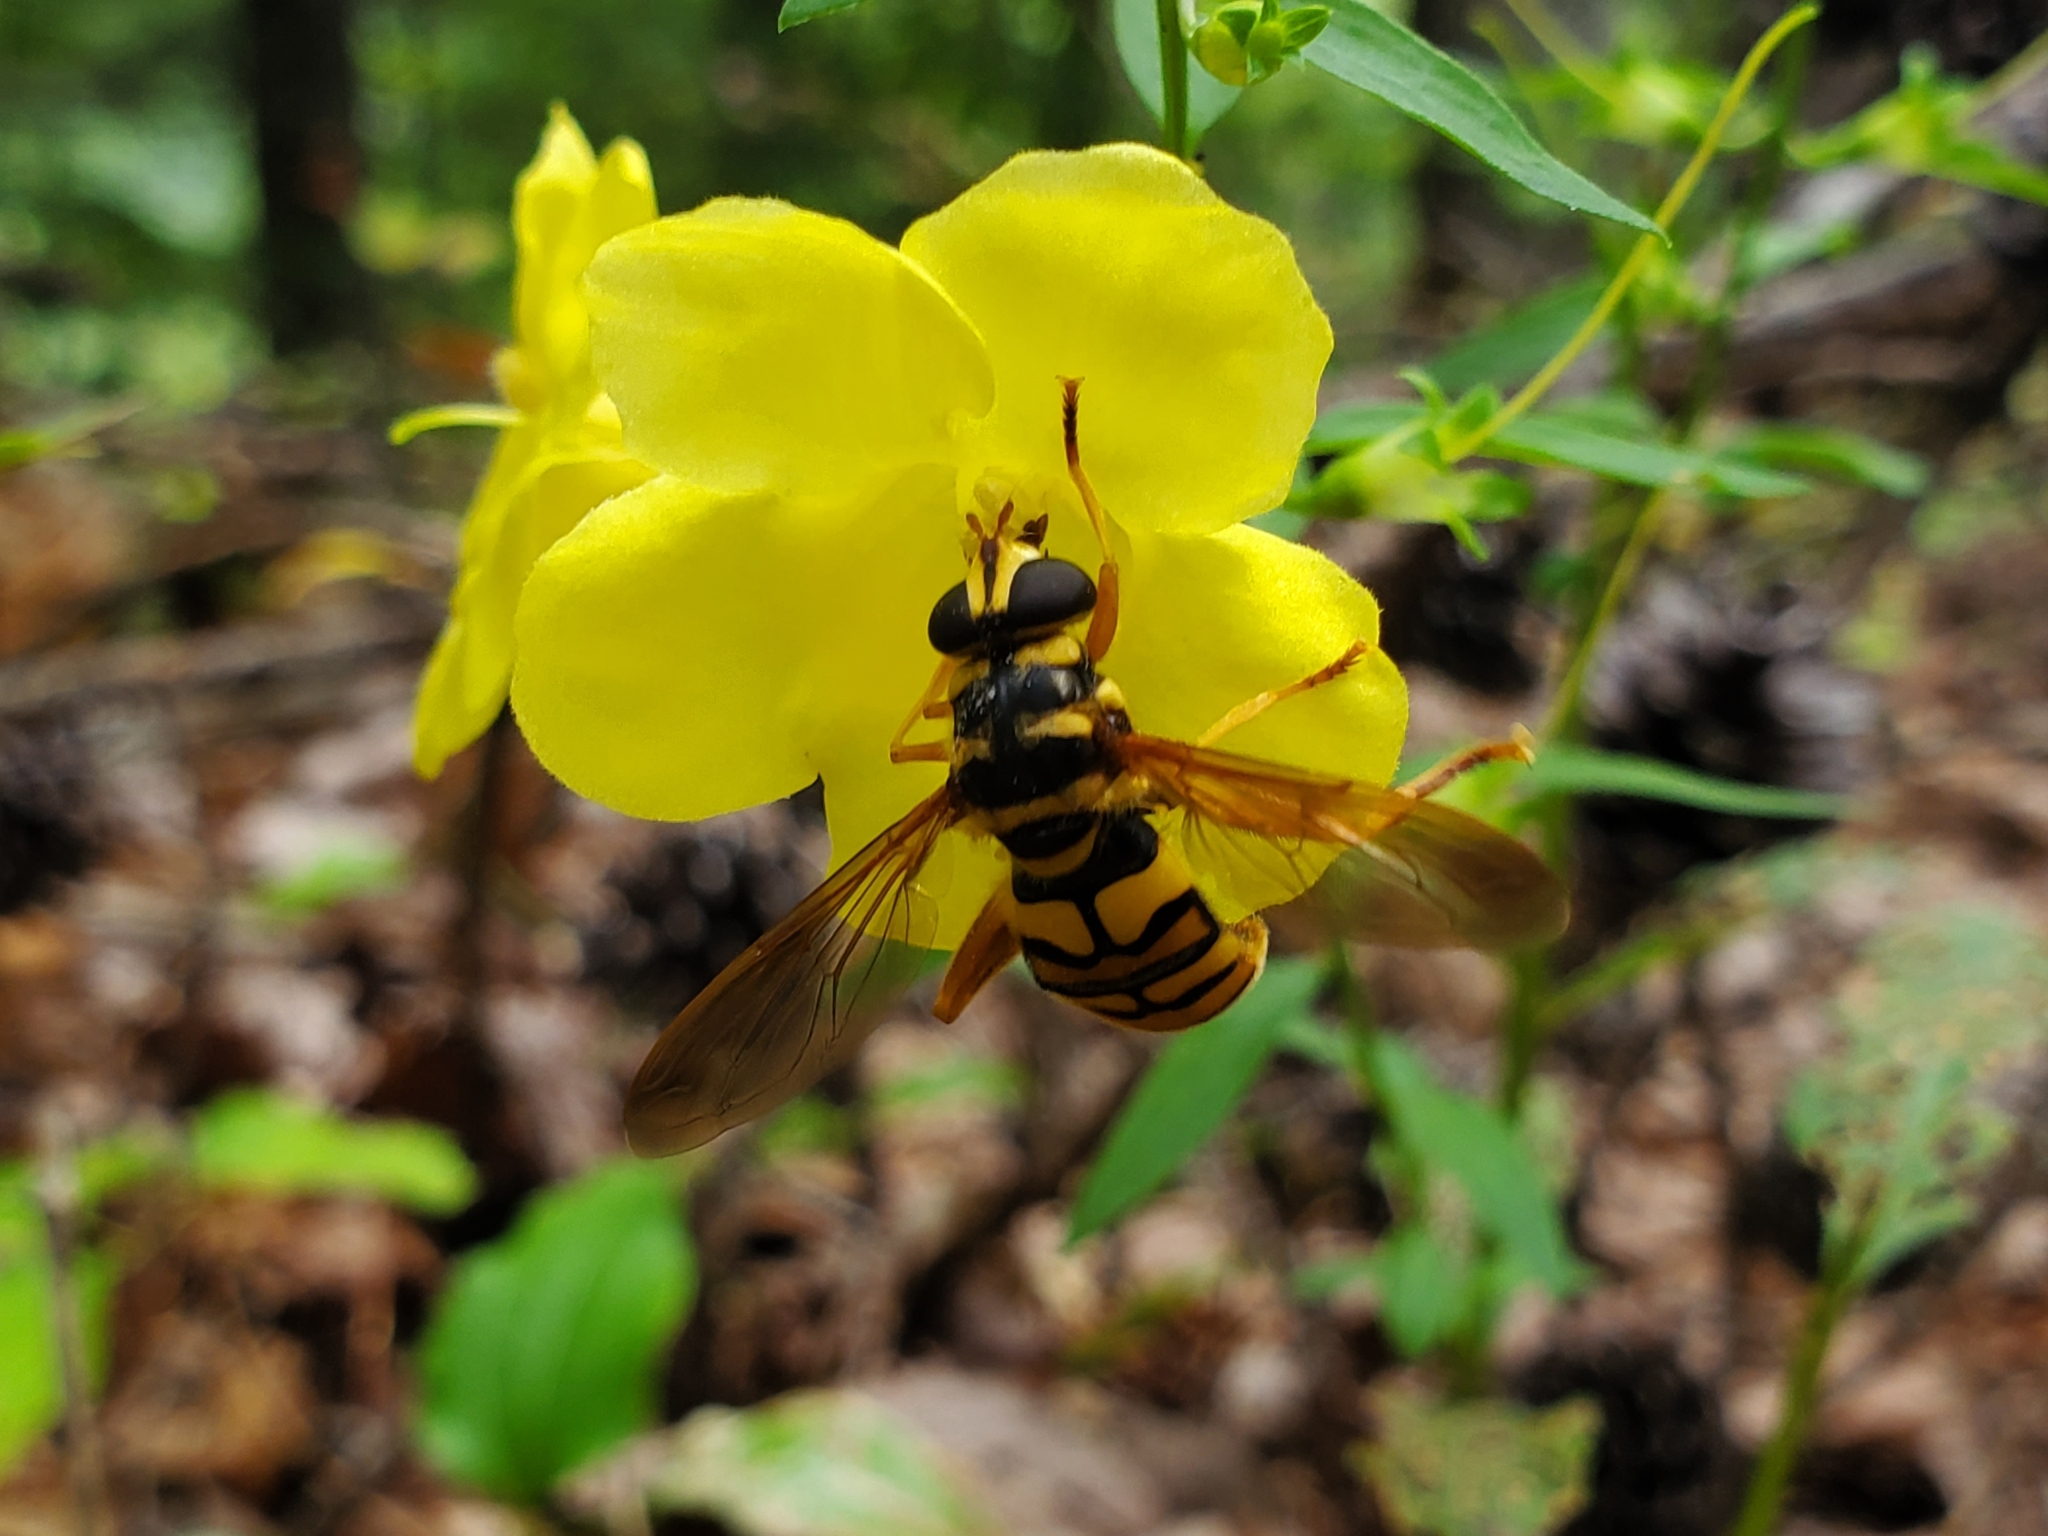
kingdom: Animalia
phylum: Arthropoda
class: Insecta
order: Diptera
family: Syrphidae
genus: Milesia
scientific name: Milesia virginiensis
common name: Virginia giant
